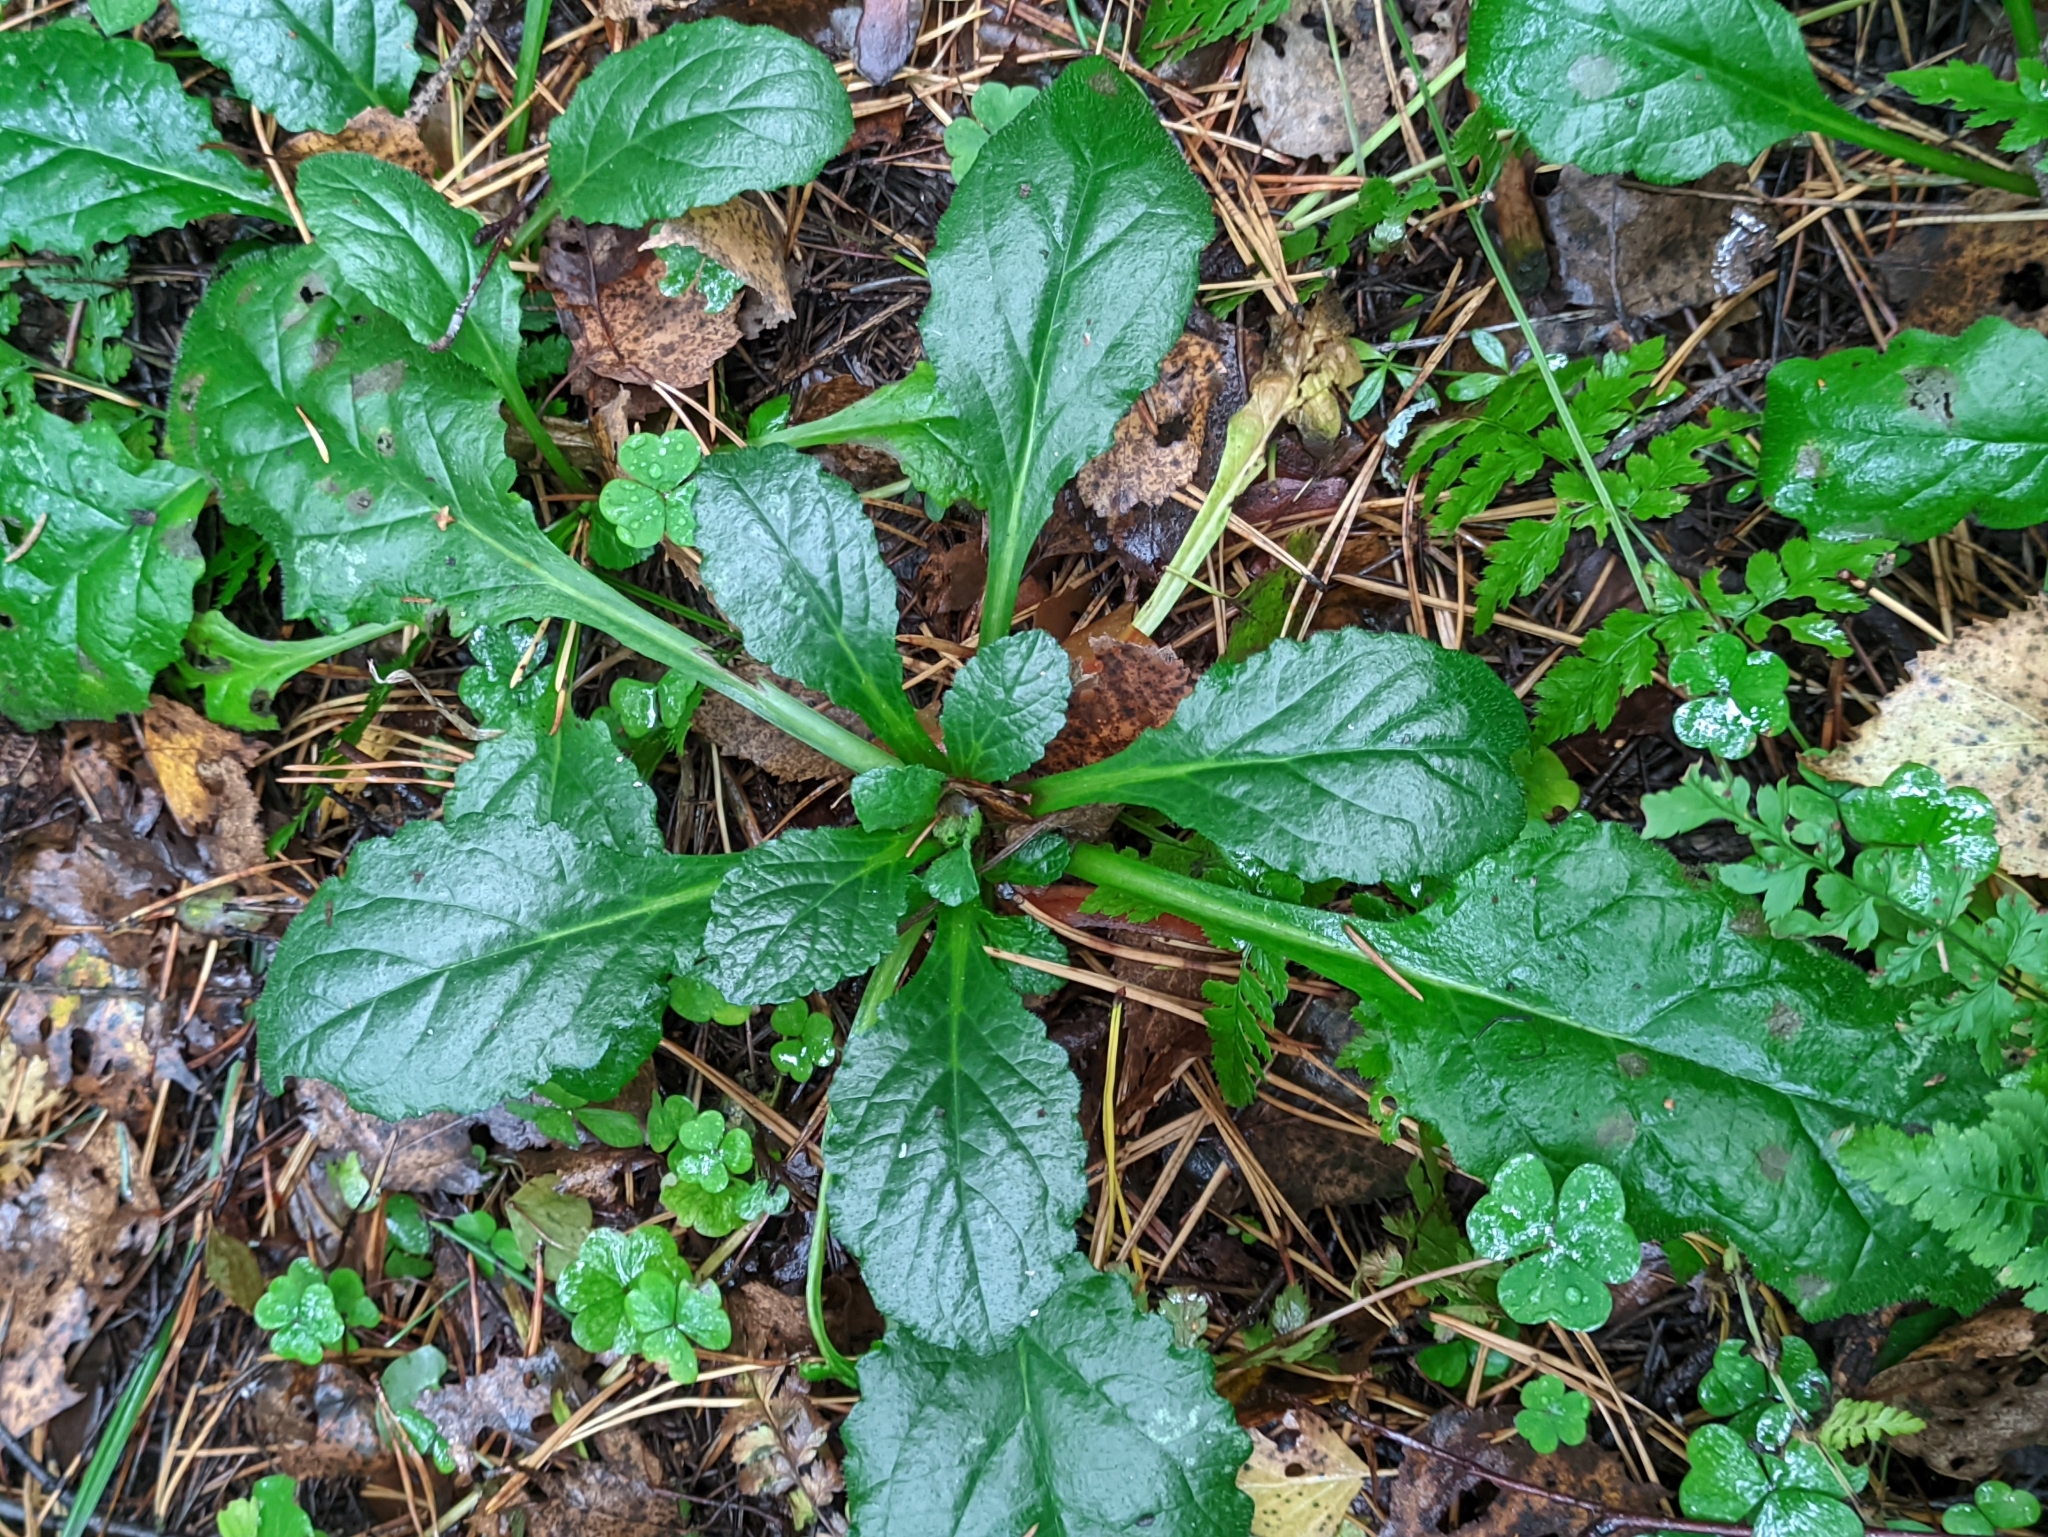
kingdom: Plantae
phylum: Tracheophyta
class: Magnoliopsida
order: Lamiales
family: Lamiaceae
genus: Ajuga
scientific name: Ajuga reptans
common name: Bugle
